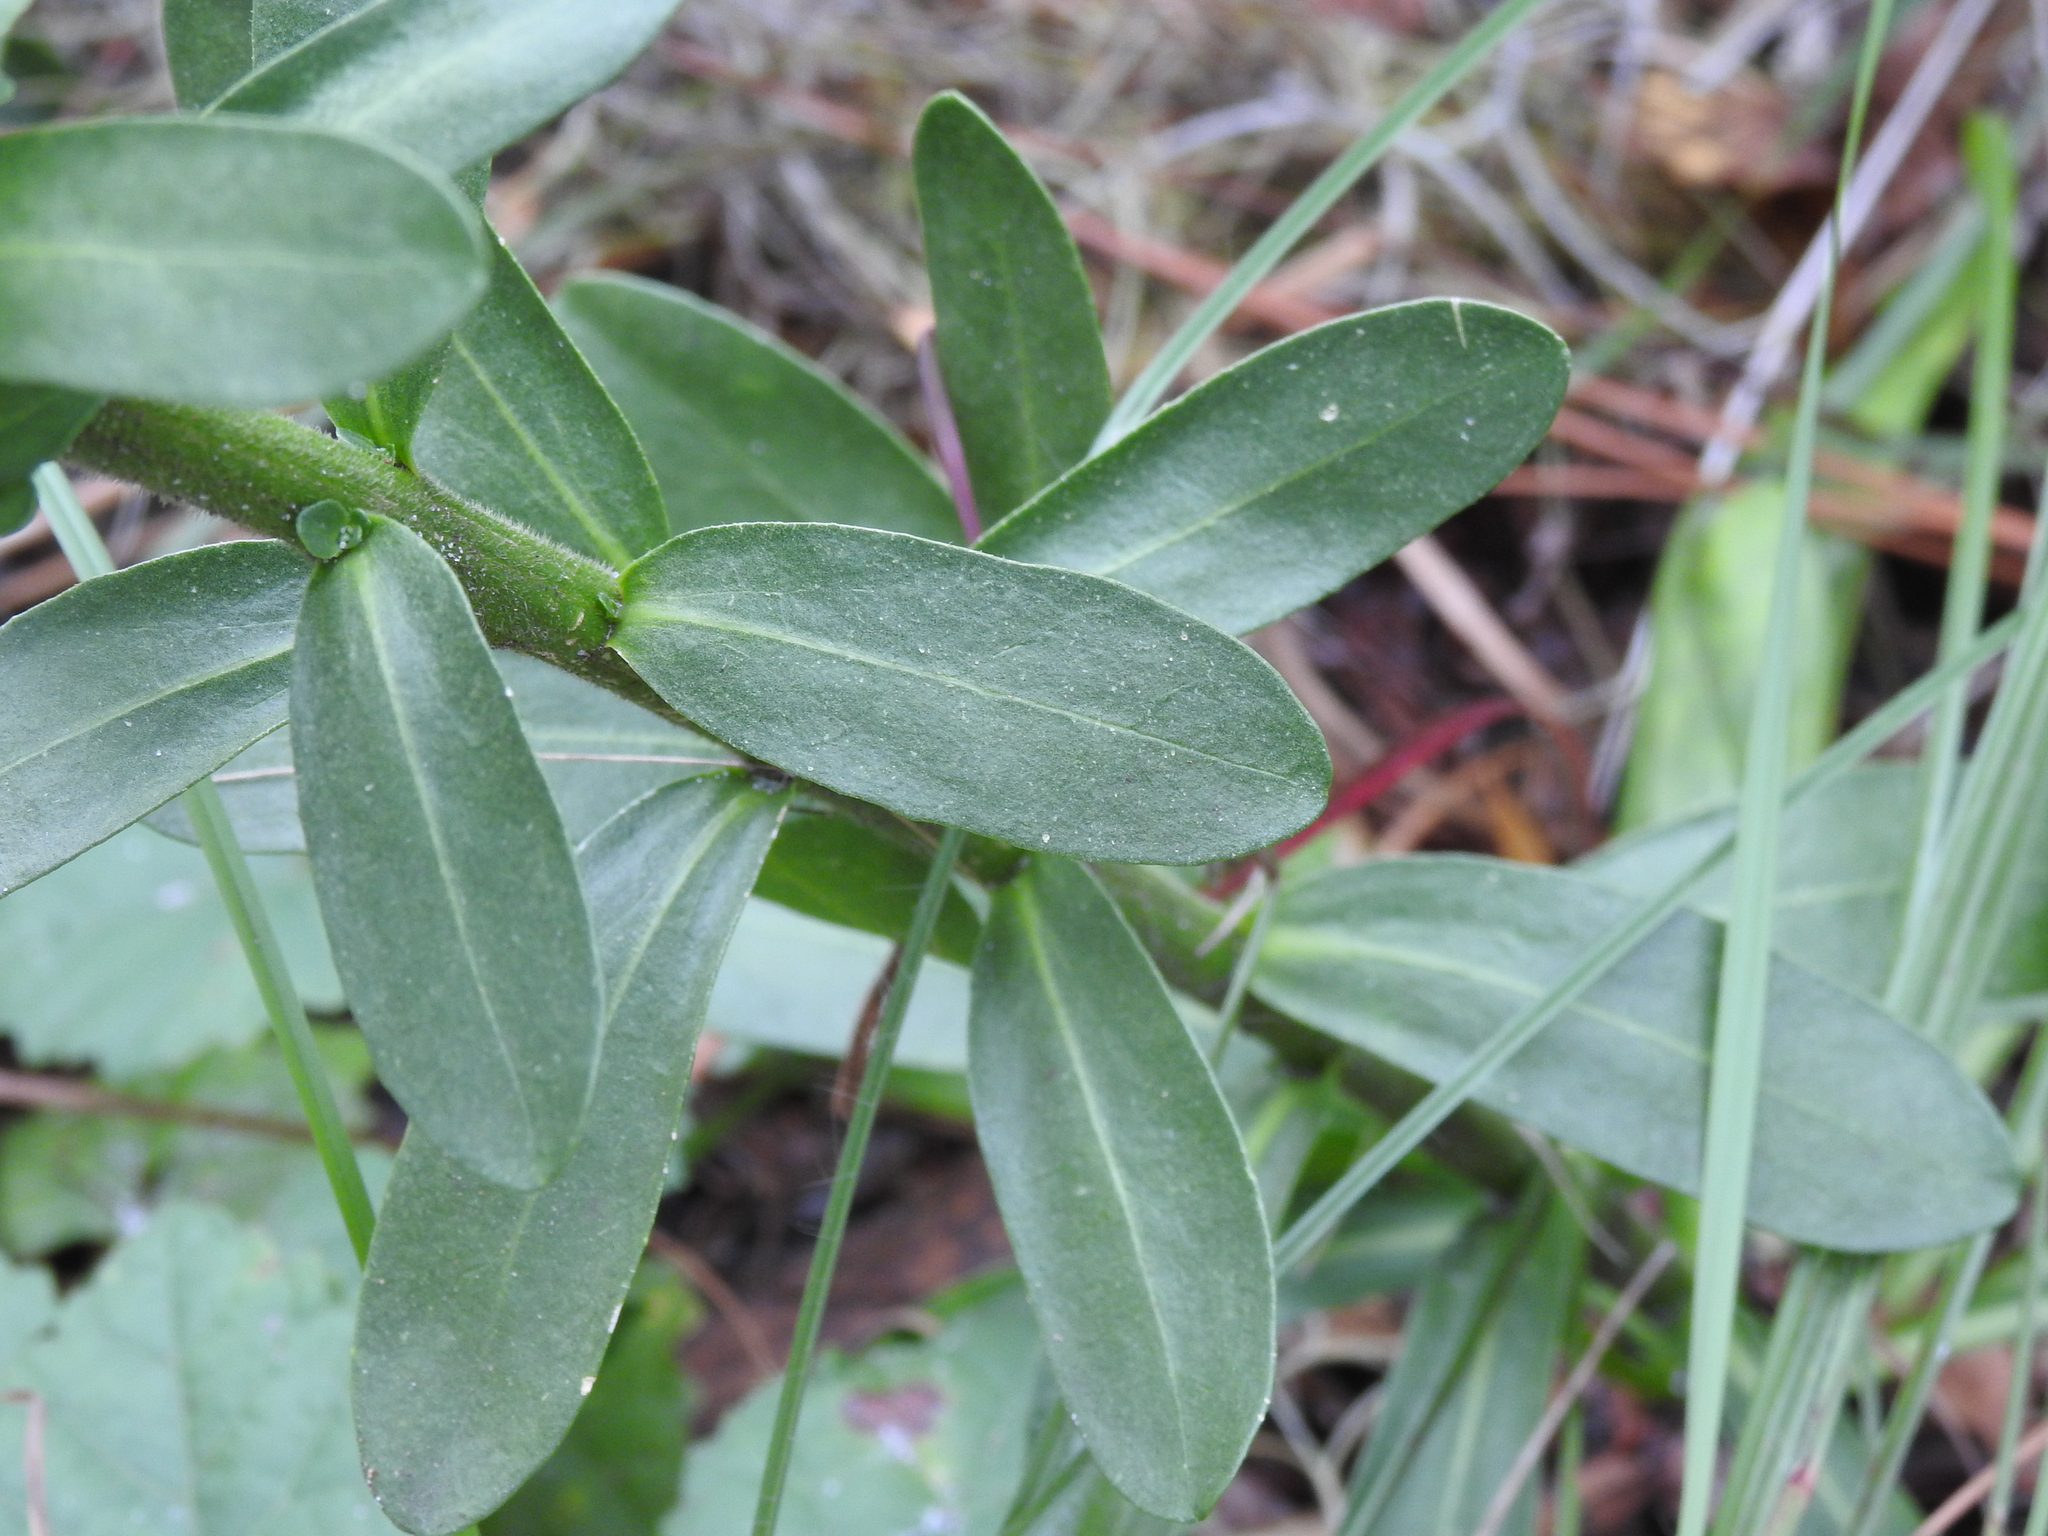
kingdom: Plantae
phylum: Tracheophyta
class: Magnoliopsida
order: Asterales
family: Asteraceae
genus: Carphephorus
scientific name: Carphephorus corymbosus
